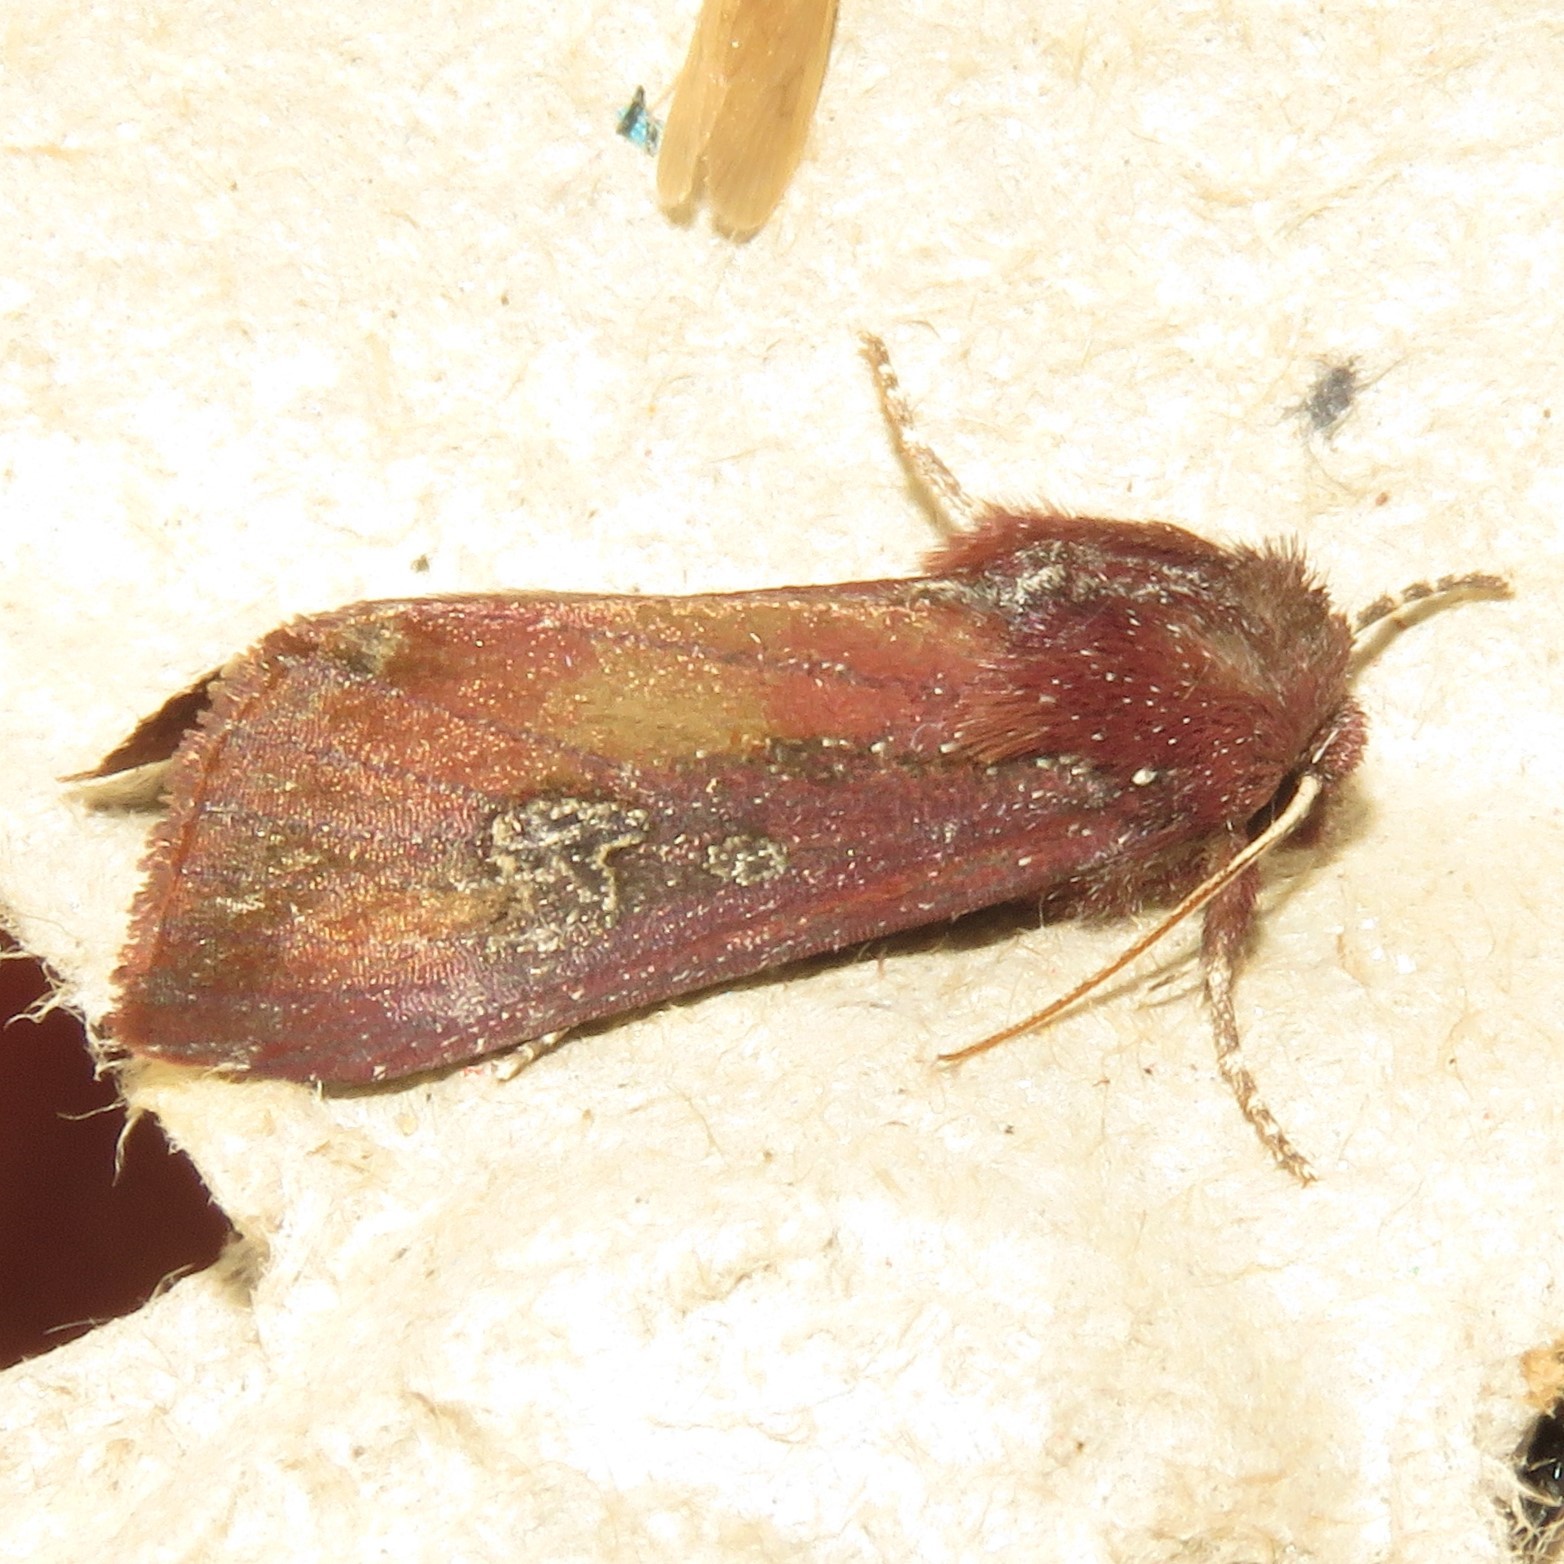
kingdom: Animalia
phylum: Arthropoda
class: Insecta
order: Lepidoptera
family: Noctuidae
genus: Melanchra
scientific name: Melanchra picta
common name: Zebra caterpillar
